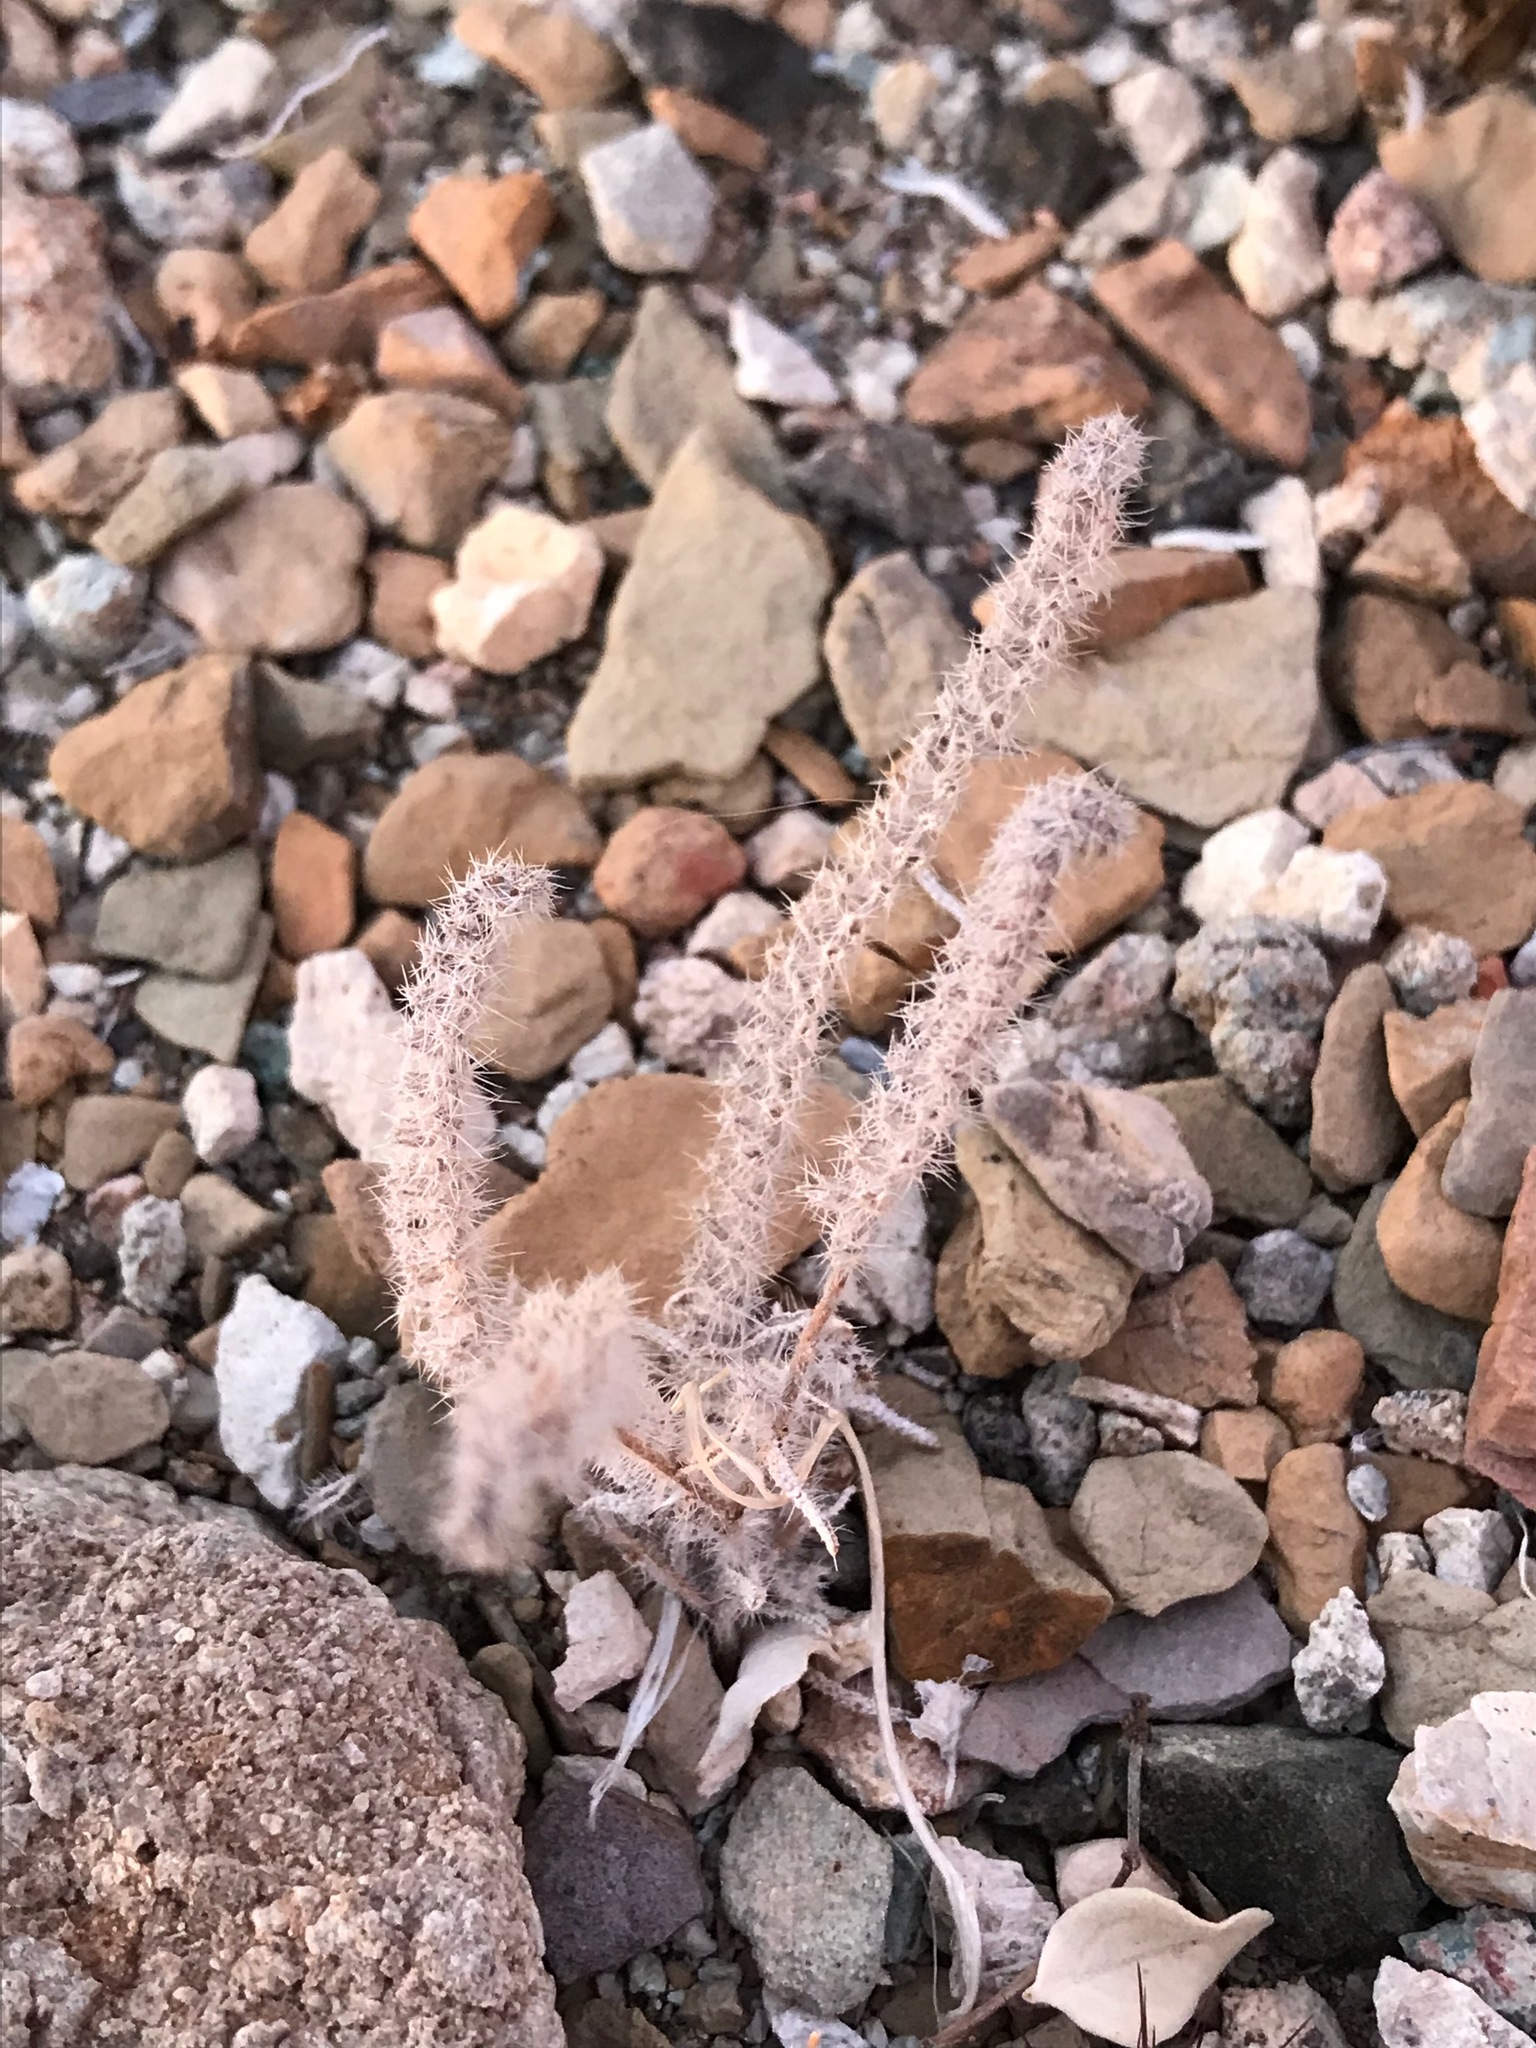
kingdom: Plantae
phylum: Tracheophyta
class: Magnoliopsida
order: Boraginales
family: Boraginaceae
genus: Johnstonella
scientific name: Johnstonella angustifolia
